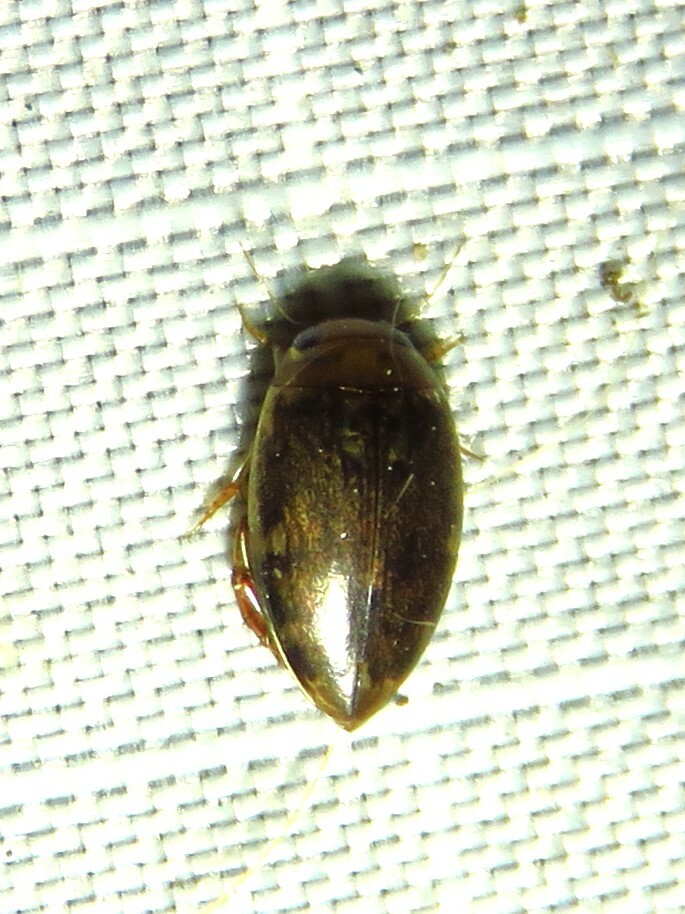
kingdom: Animalia
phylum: Arthropoda
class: Insecta
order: Coleoptera
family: Dytiscidae
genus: Laccophilus
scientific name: Laccophilus proximus
